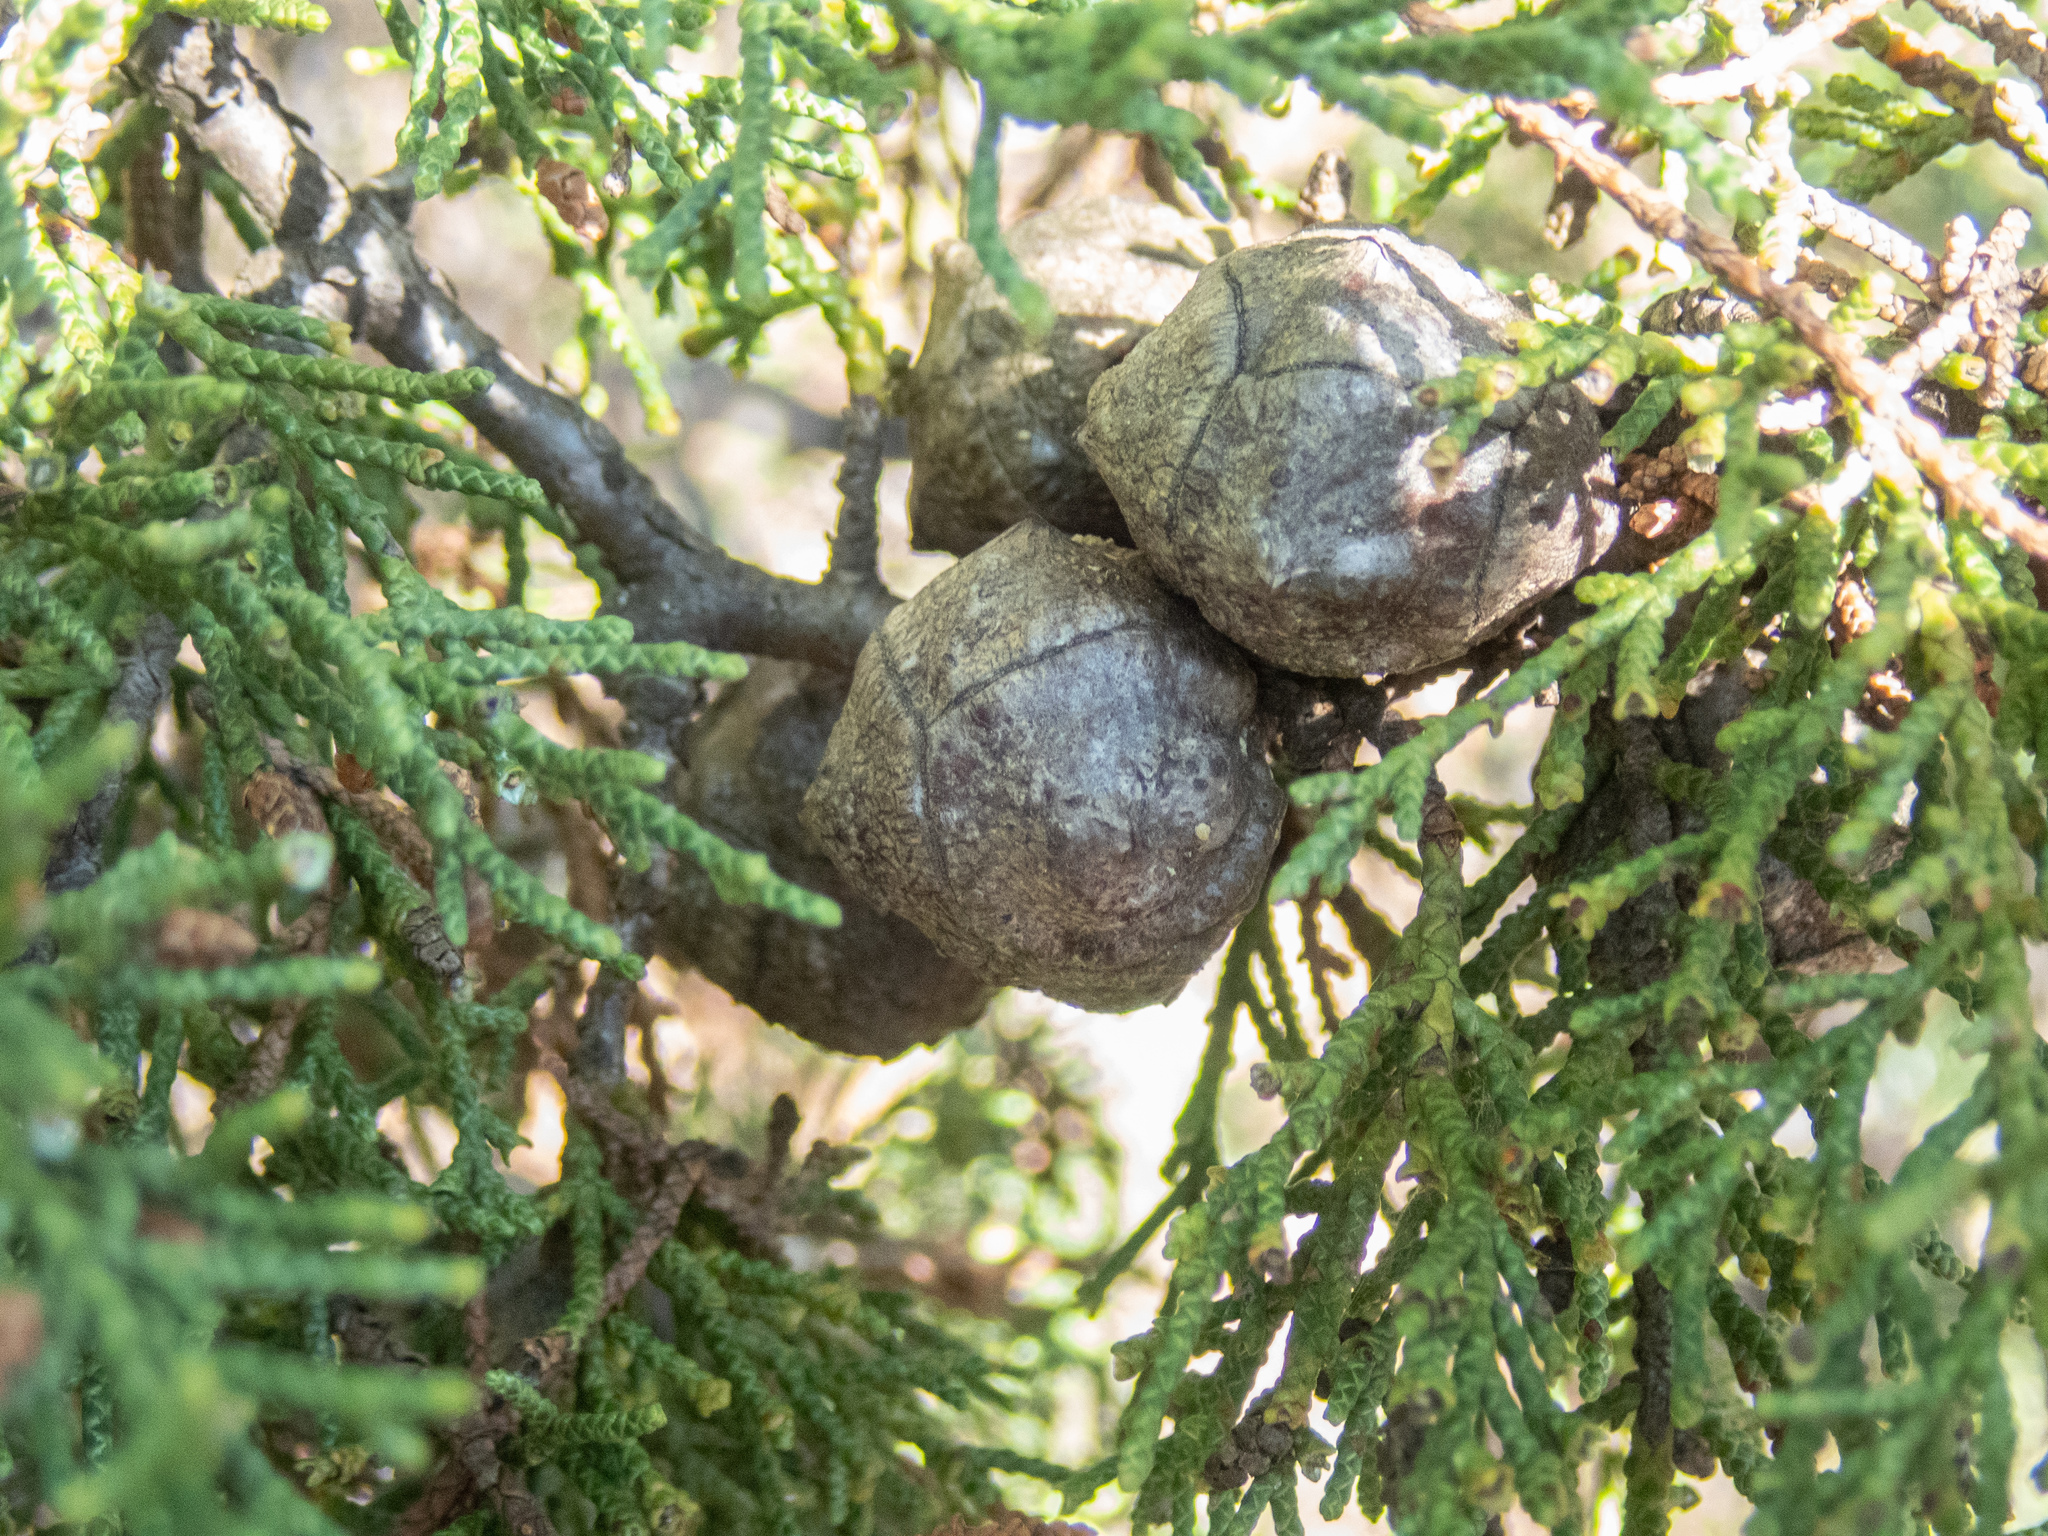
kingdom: Plantae
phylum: Tracheophyta
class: Pinopsida
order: Pinales
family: Cupressaceae
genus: Cupressus
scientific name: Cupressus sargentii
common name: Sargent cypress
